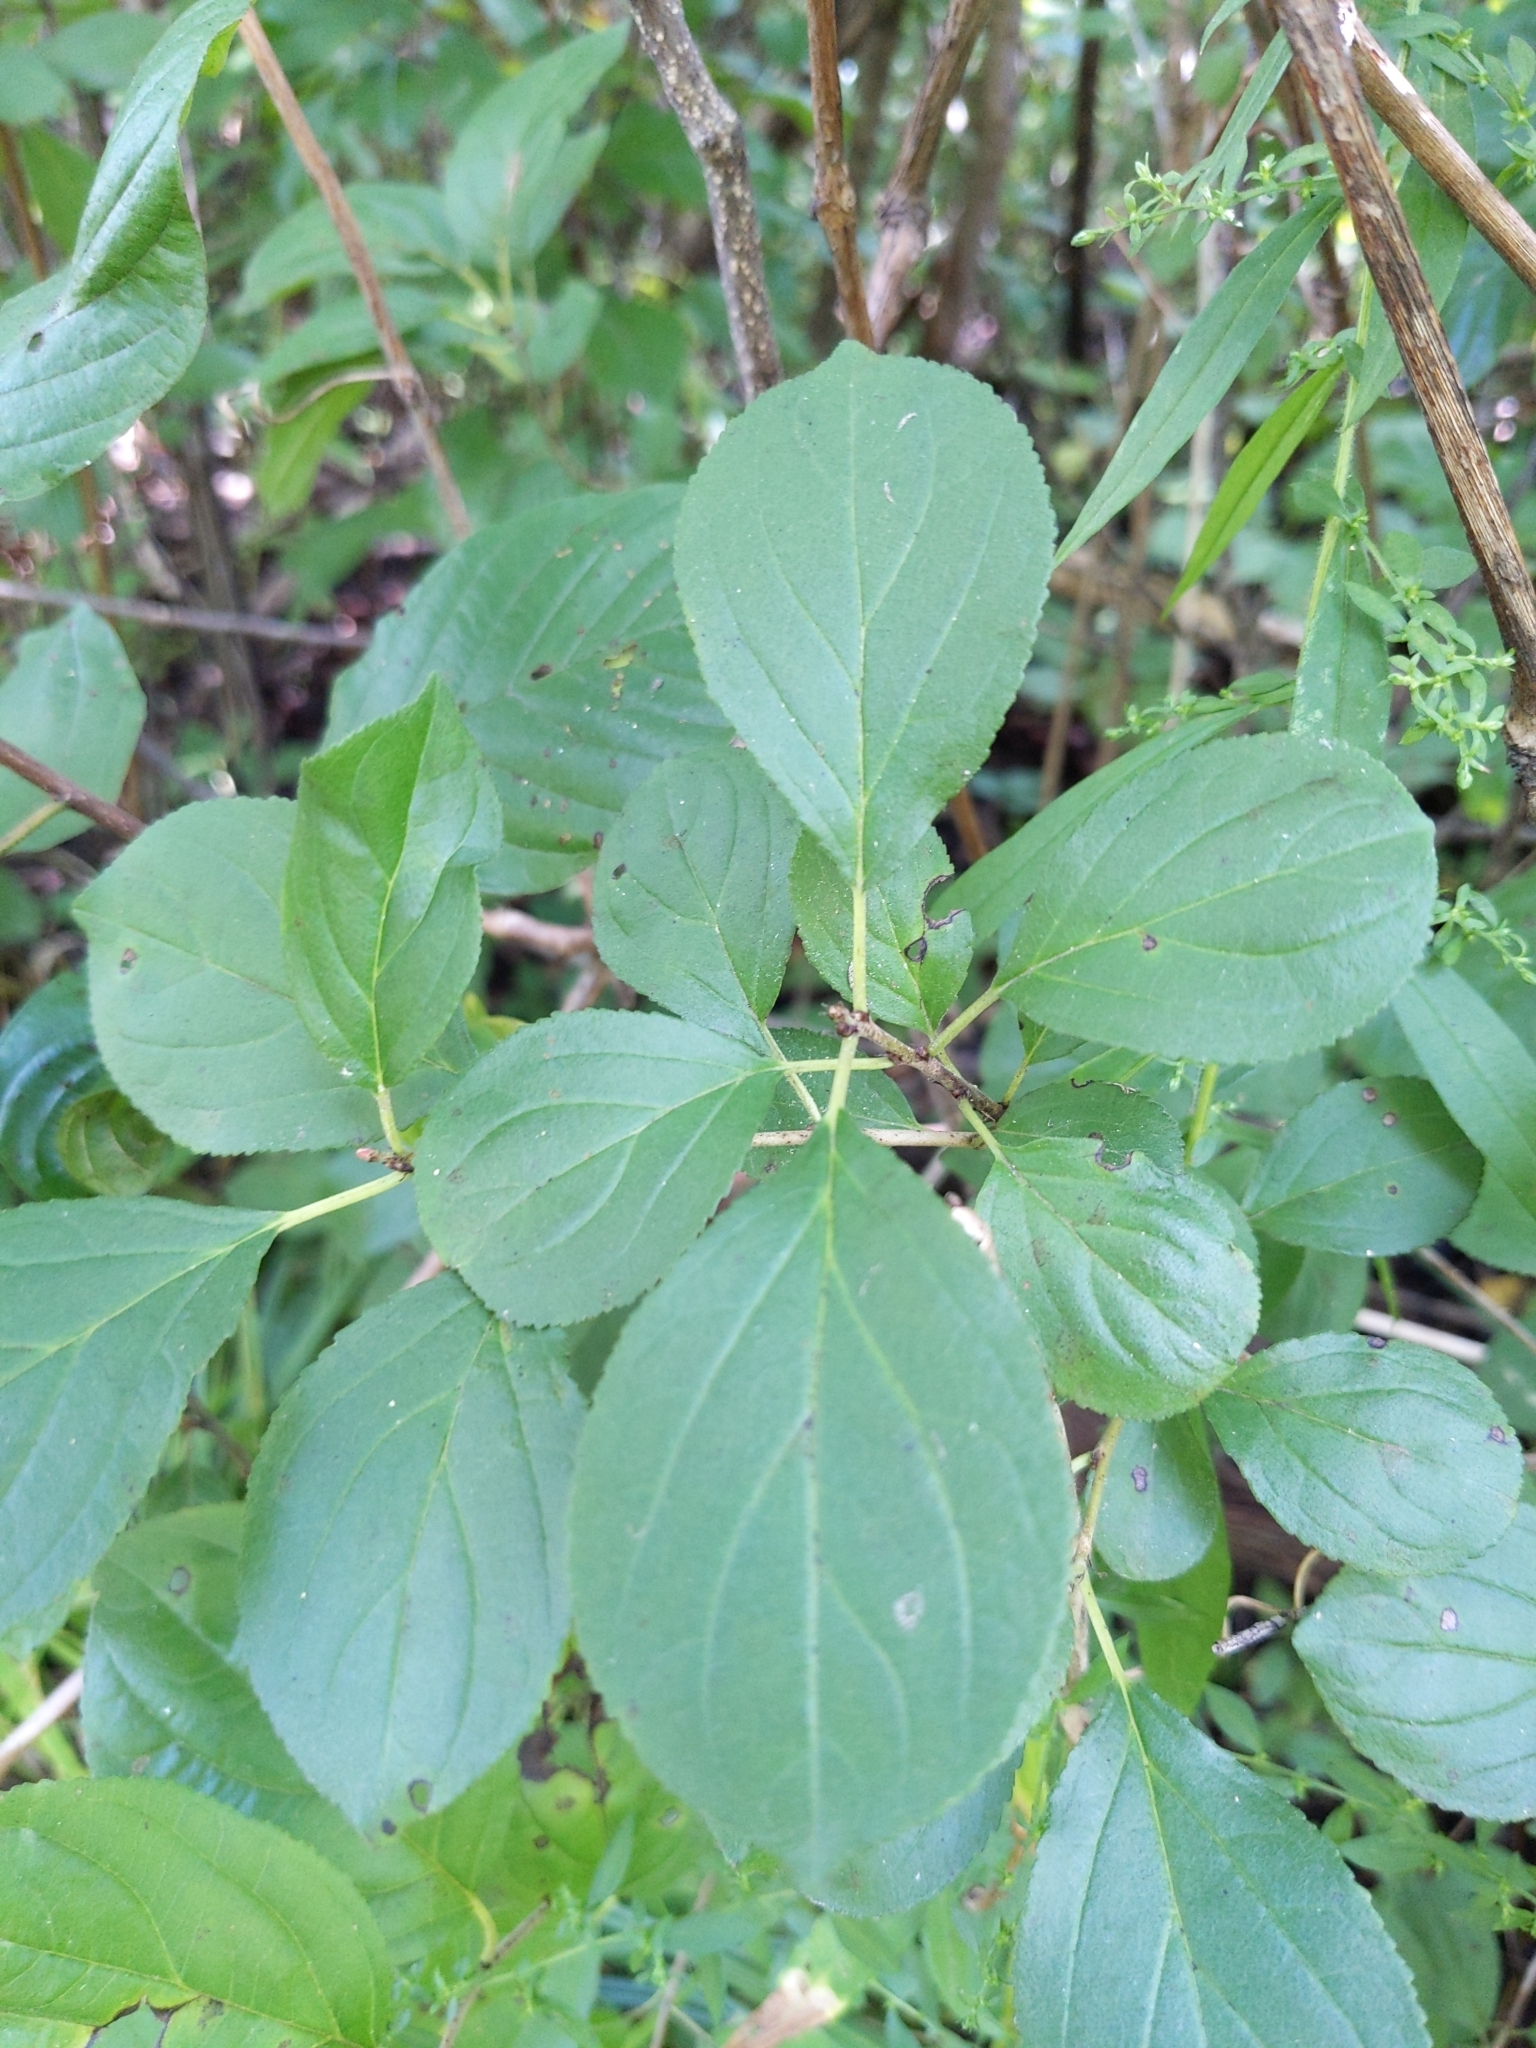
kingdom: Plantae
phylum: Tracheophyta
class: Magnoliopsida
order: Rosales
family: Rhamnaceae
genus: Rhamnus
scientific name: Rhamnus cathartica
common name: Common buckthorn
